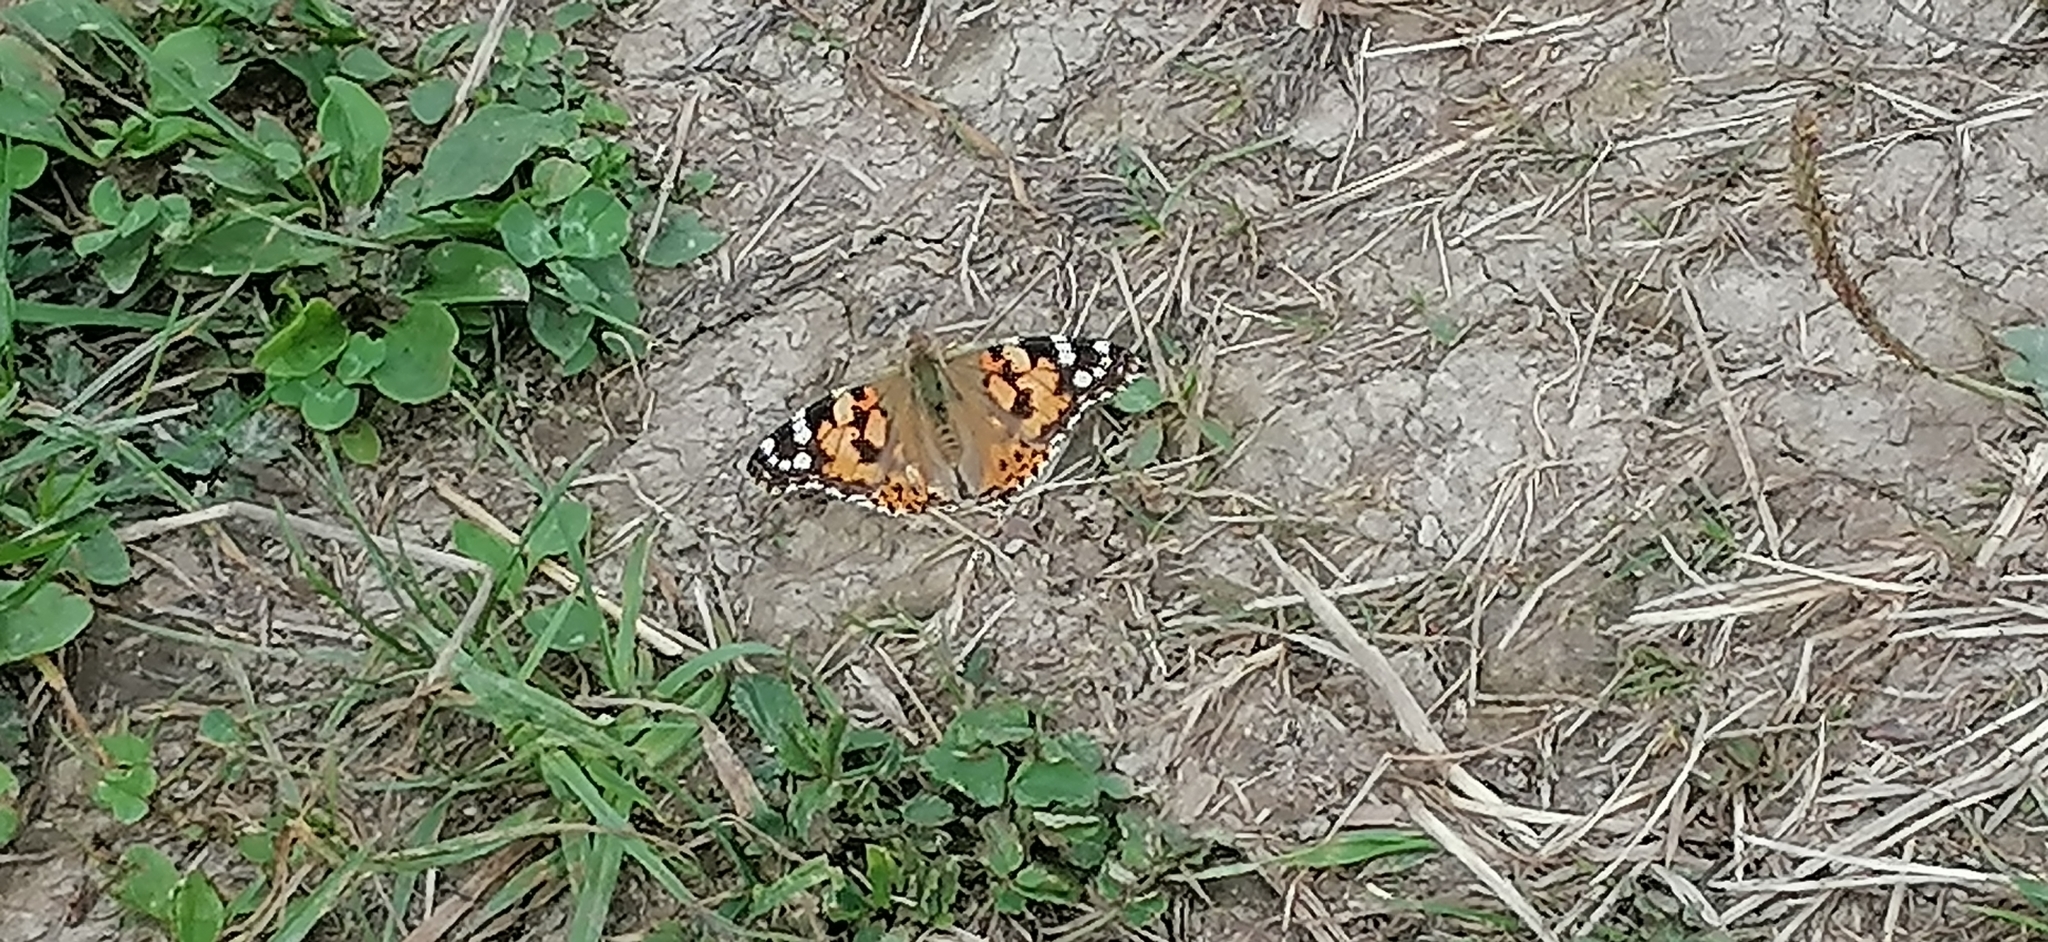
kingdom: Animalia
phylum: Arthropoda
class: Insecta
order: Lepidoptera
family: Nymphalidae
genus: Vanessa
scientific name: Vanessa cardui
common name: Painted lady
